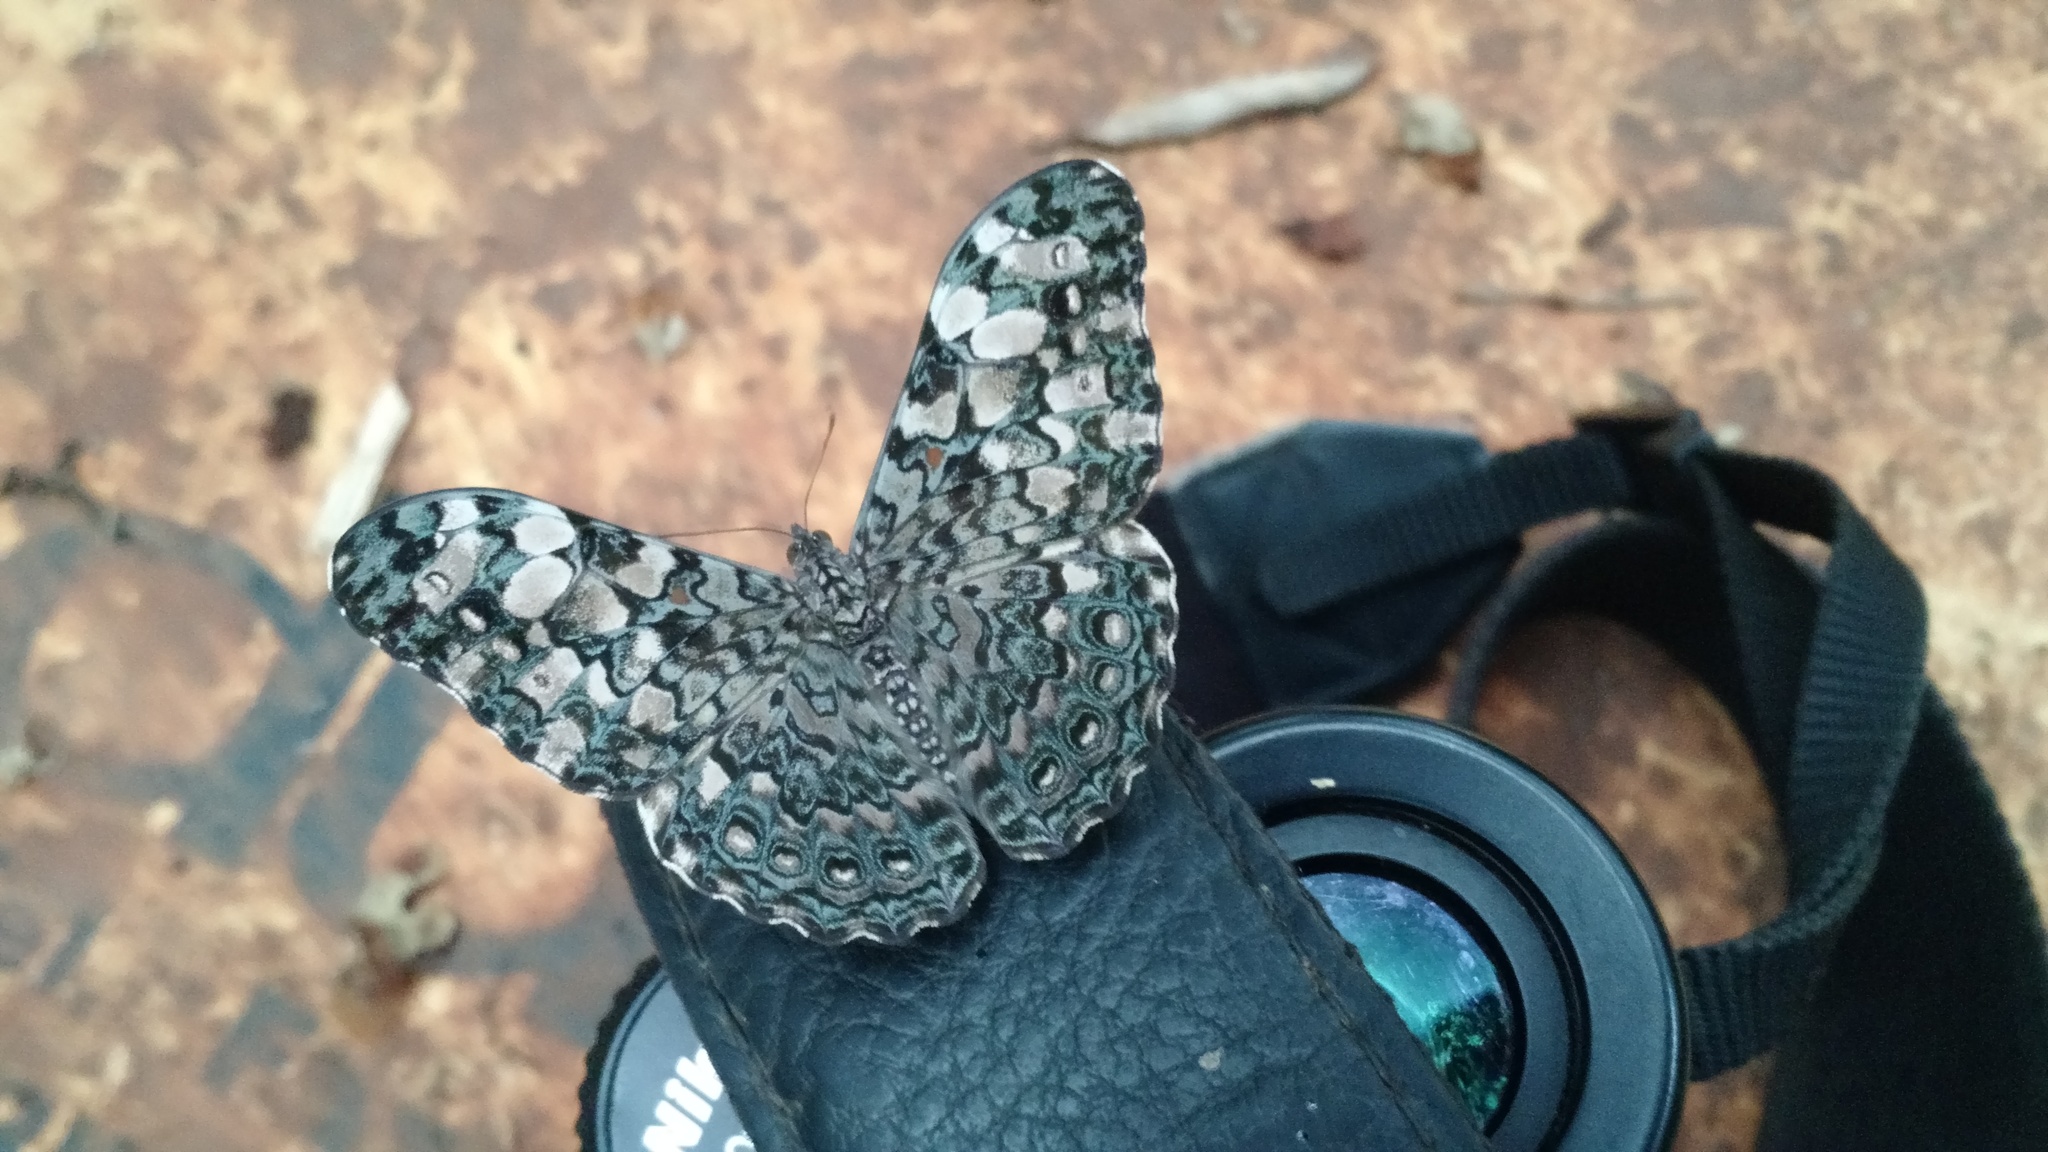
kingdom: Animalia
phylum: Arthropoda
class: Insecta
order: Lepidoptera
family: Nymphalidae
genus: Hamadryas
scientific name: Hamadryas epinome
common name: Epinome cracker
